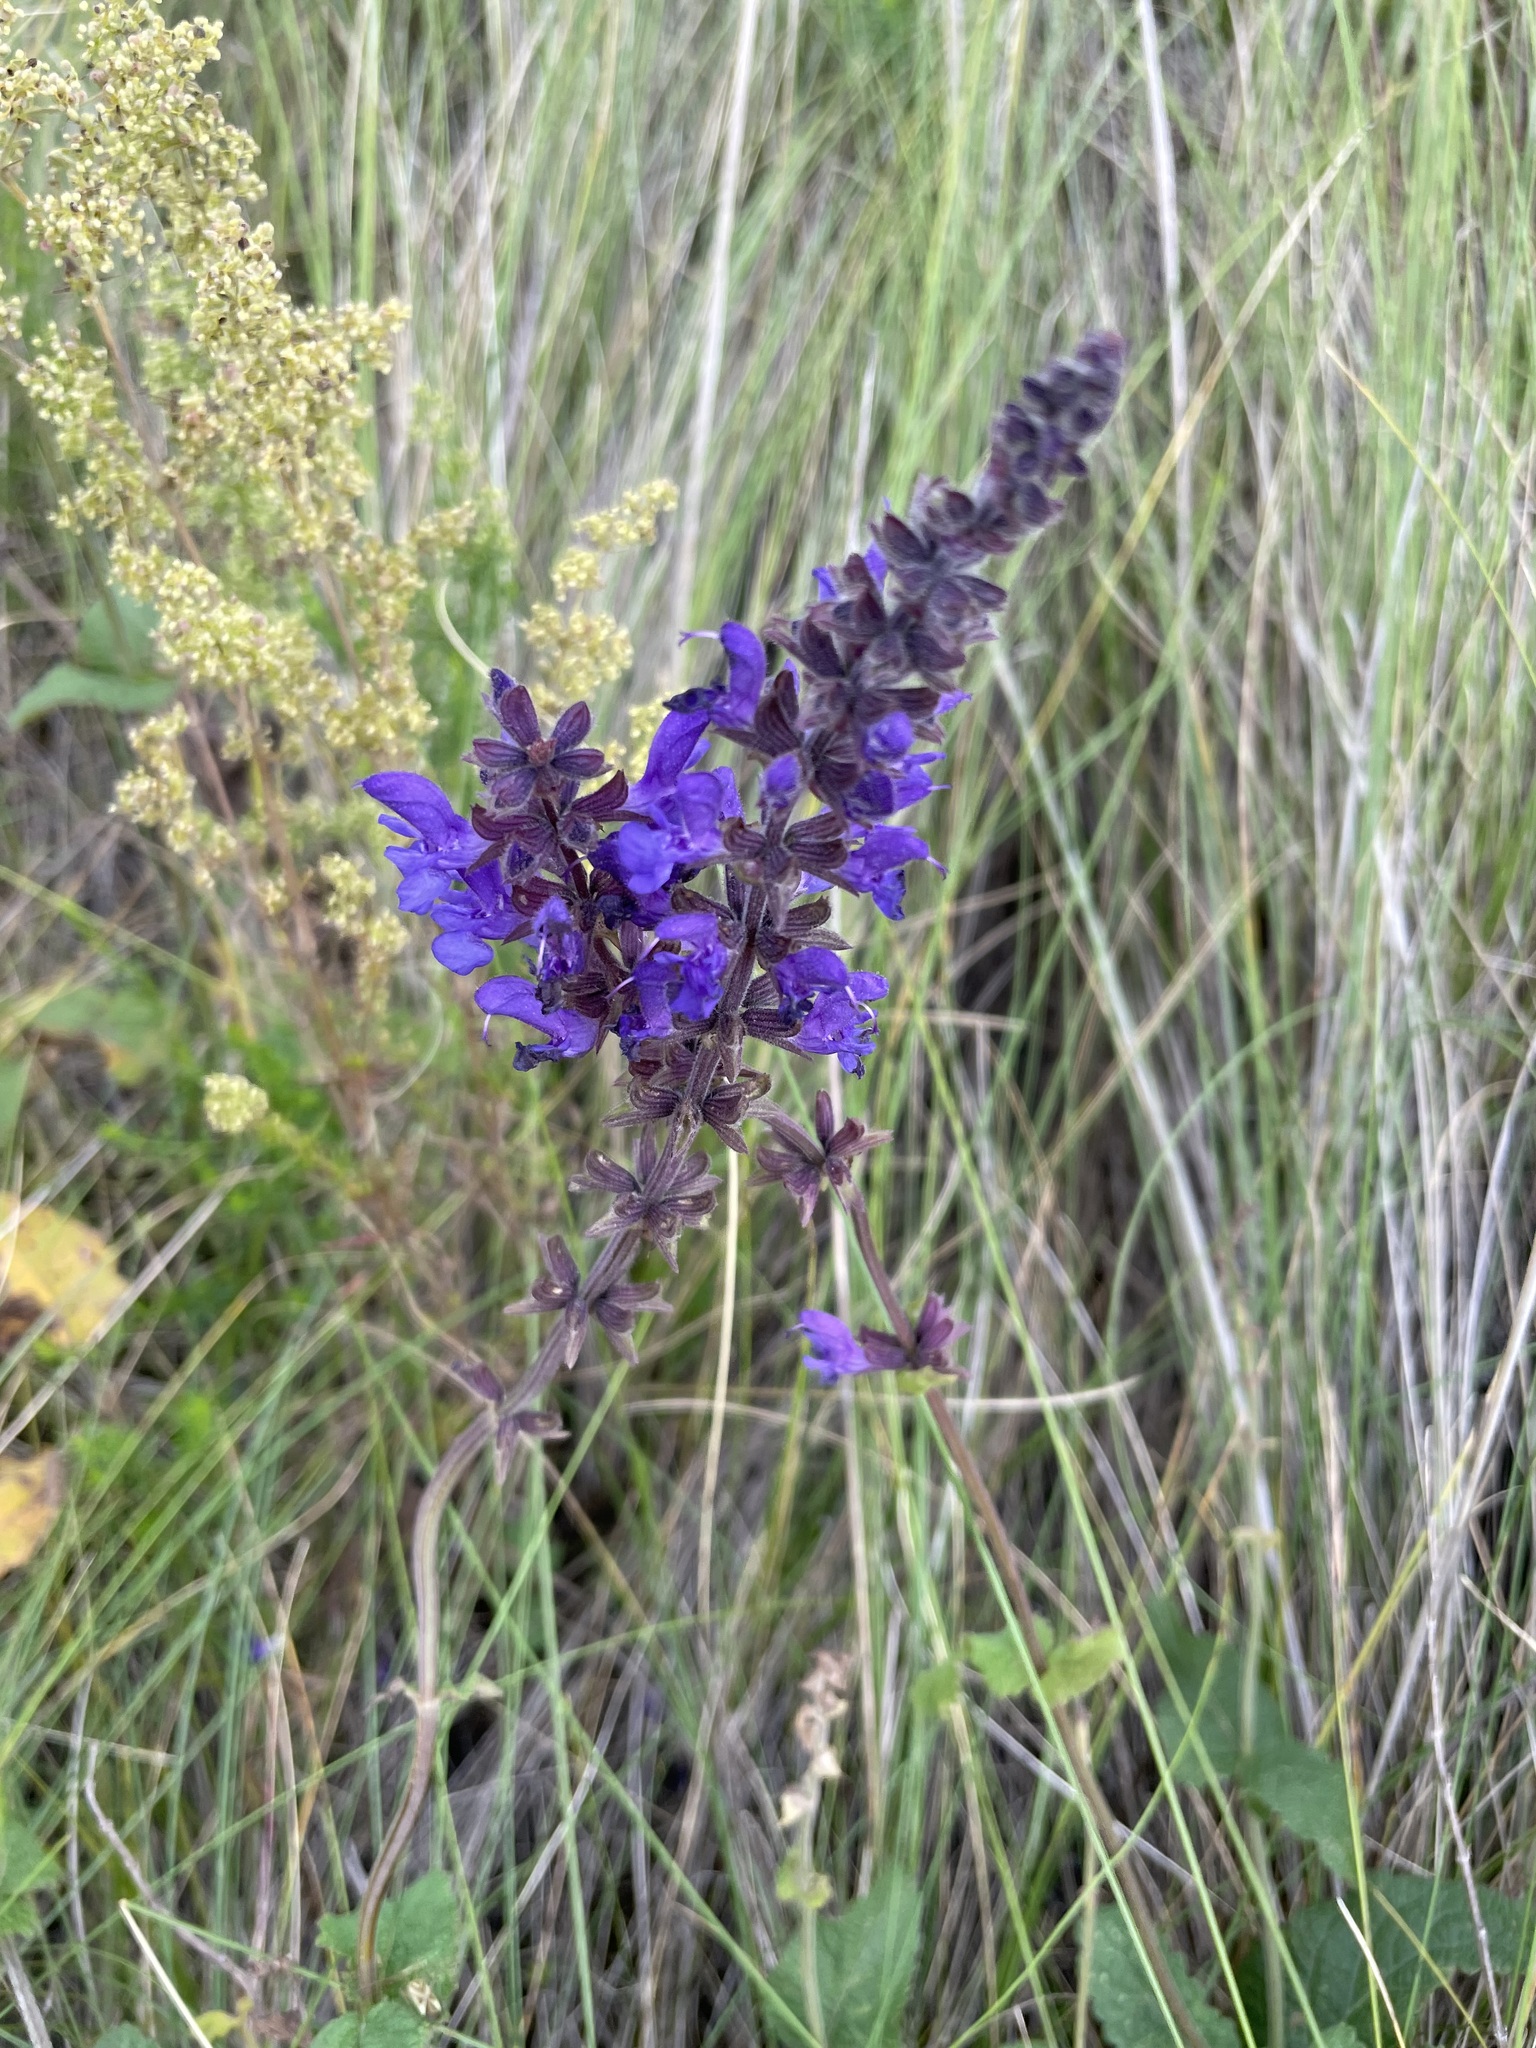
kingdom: Plantae
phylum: Tracheophyta
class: Magnoliopsida
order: Lamiales
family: Lamiaceae
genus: Salvia
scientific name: Salvia dumetorum
